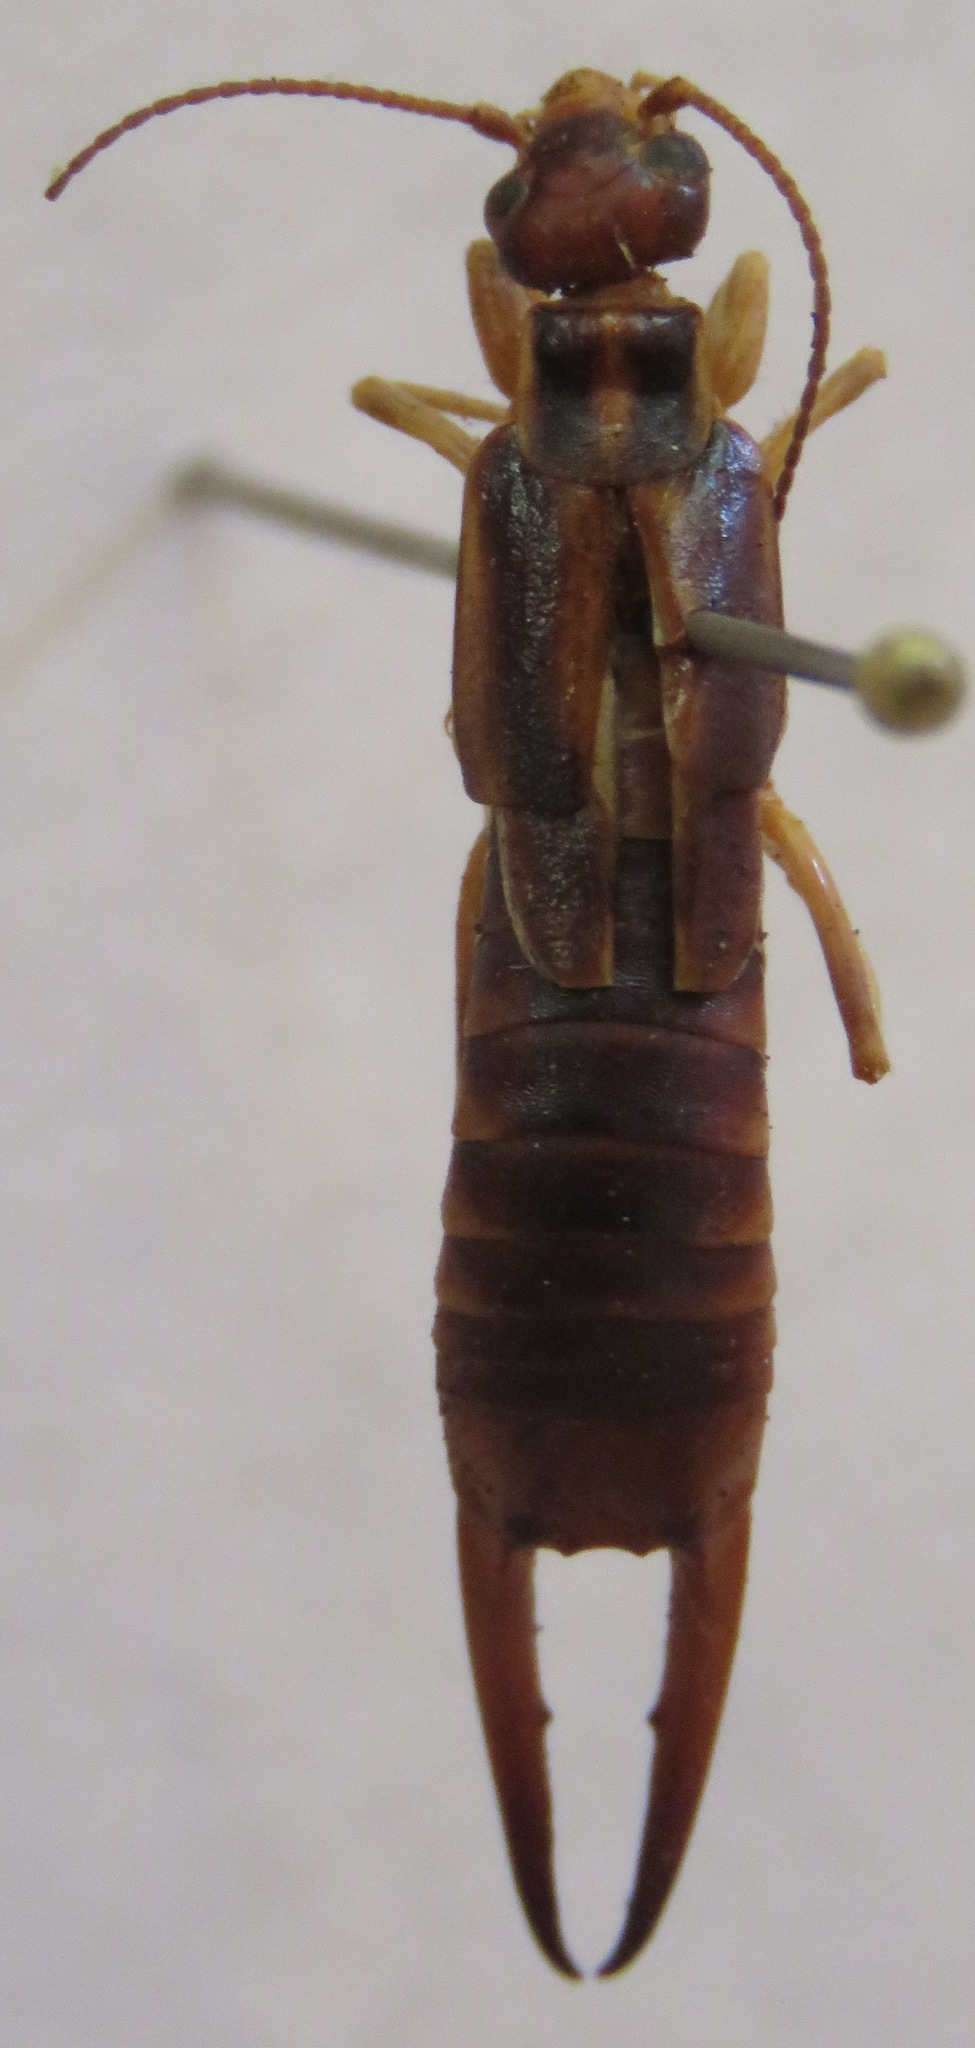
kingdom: Animalia
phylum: Arthropoda
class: Insecta
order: Dermaptera
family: Labiduridae
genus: Labidura
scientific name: Labidura riparia
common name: Striped earwig
